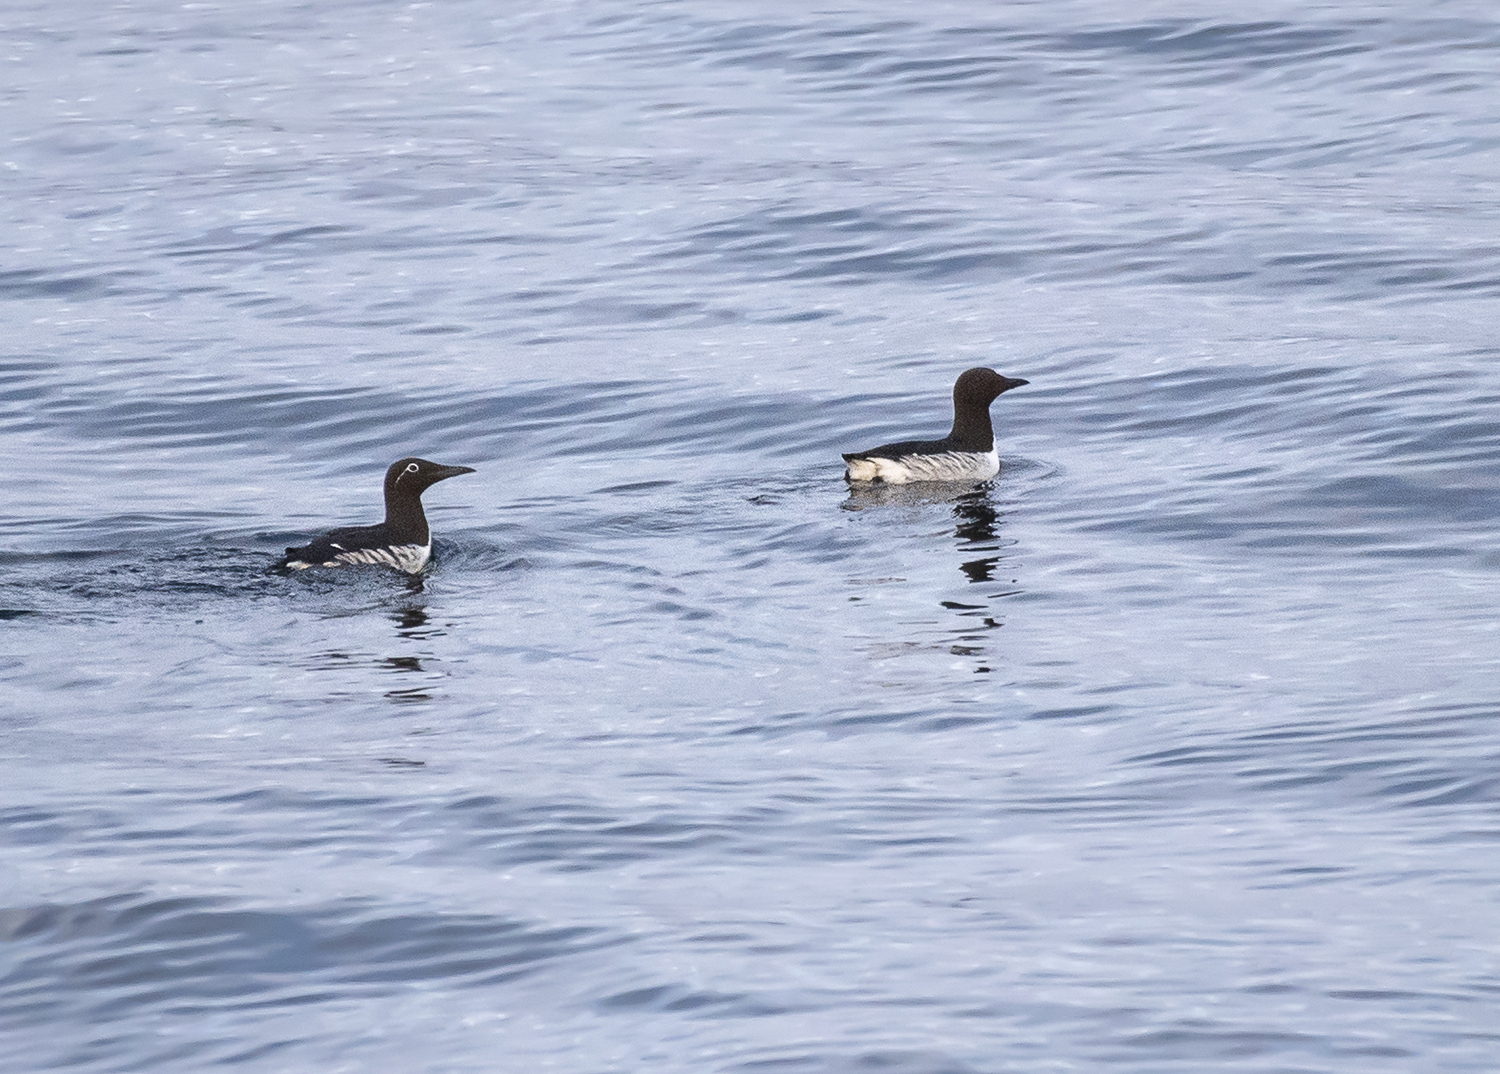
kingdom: Animalia
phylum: Chordata
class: Aves
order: Charadriiformes
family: Alcidae
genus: Uria
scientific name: Uria aalge
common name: Common murre
